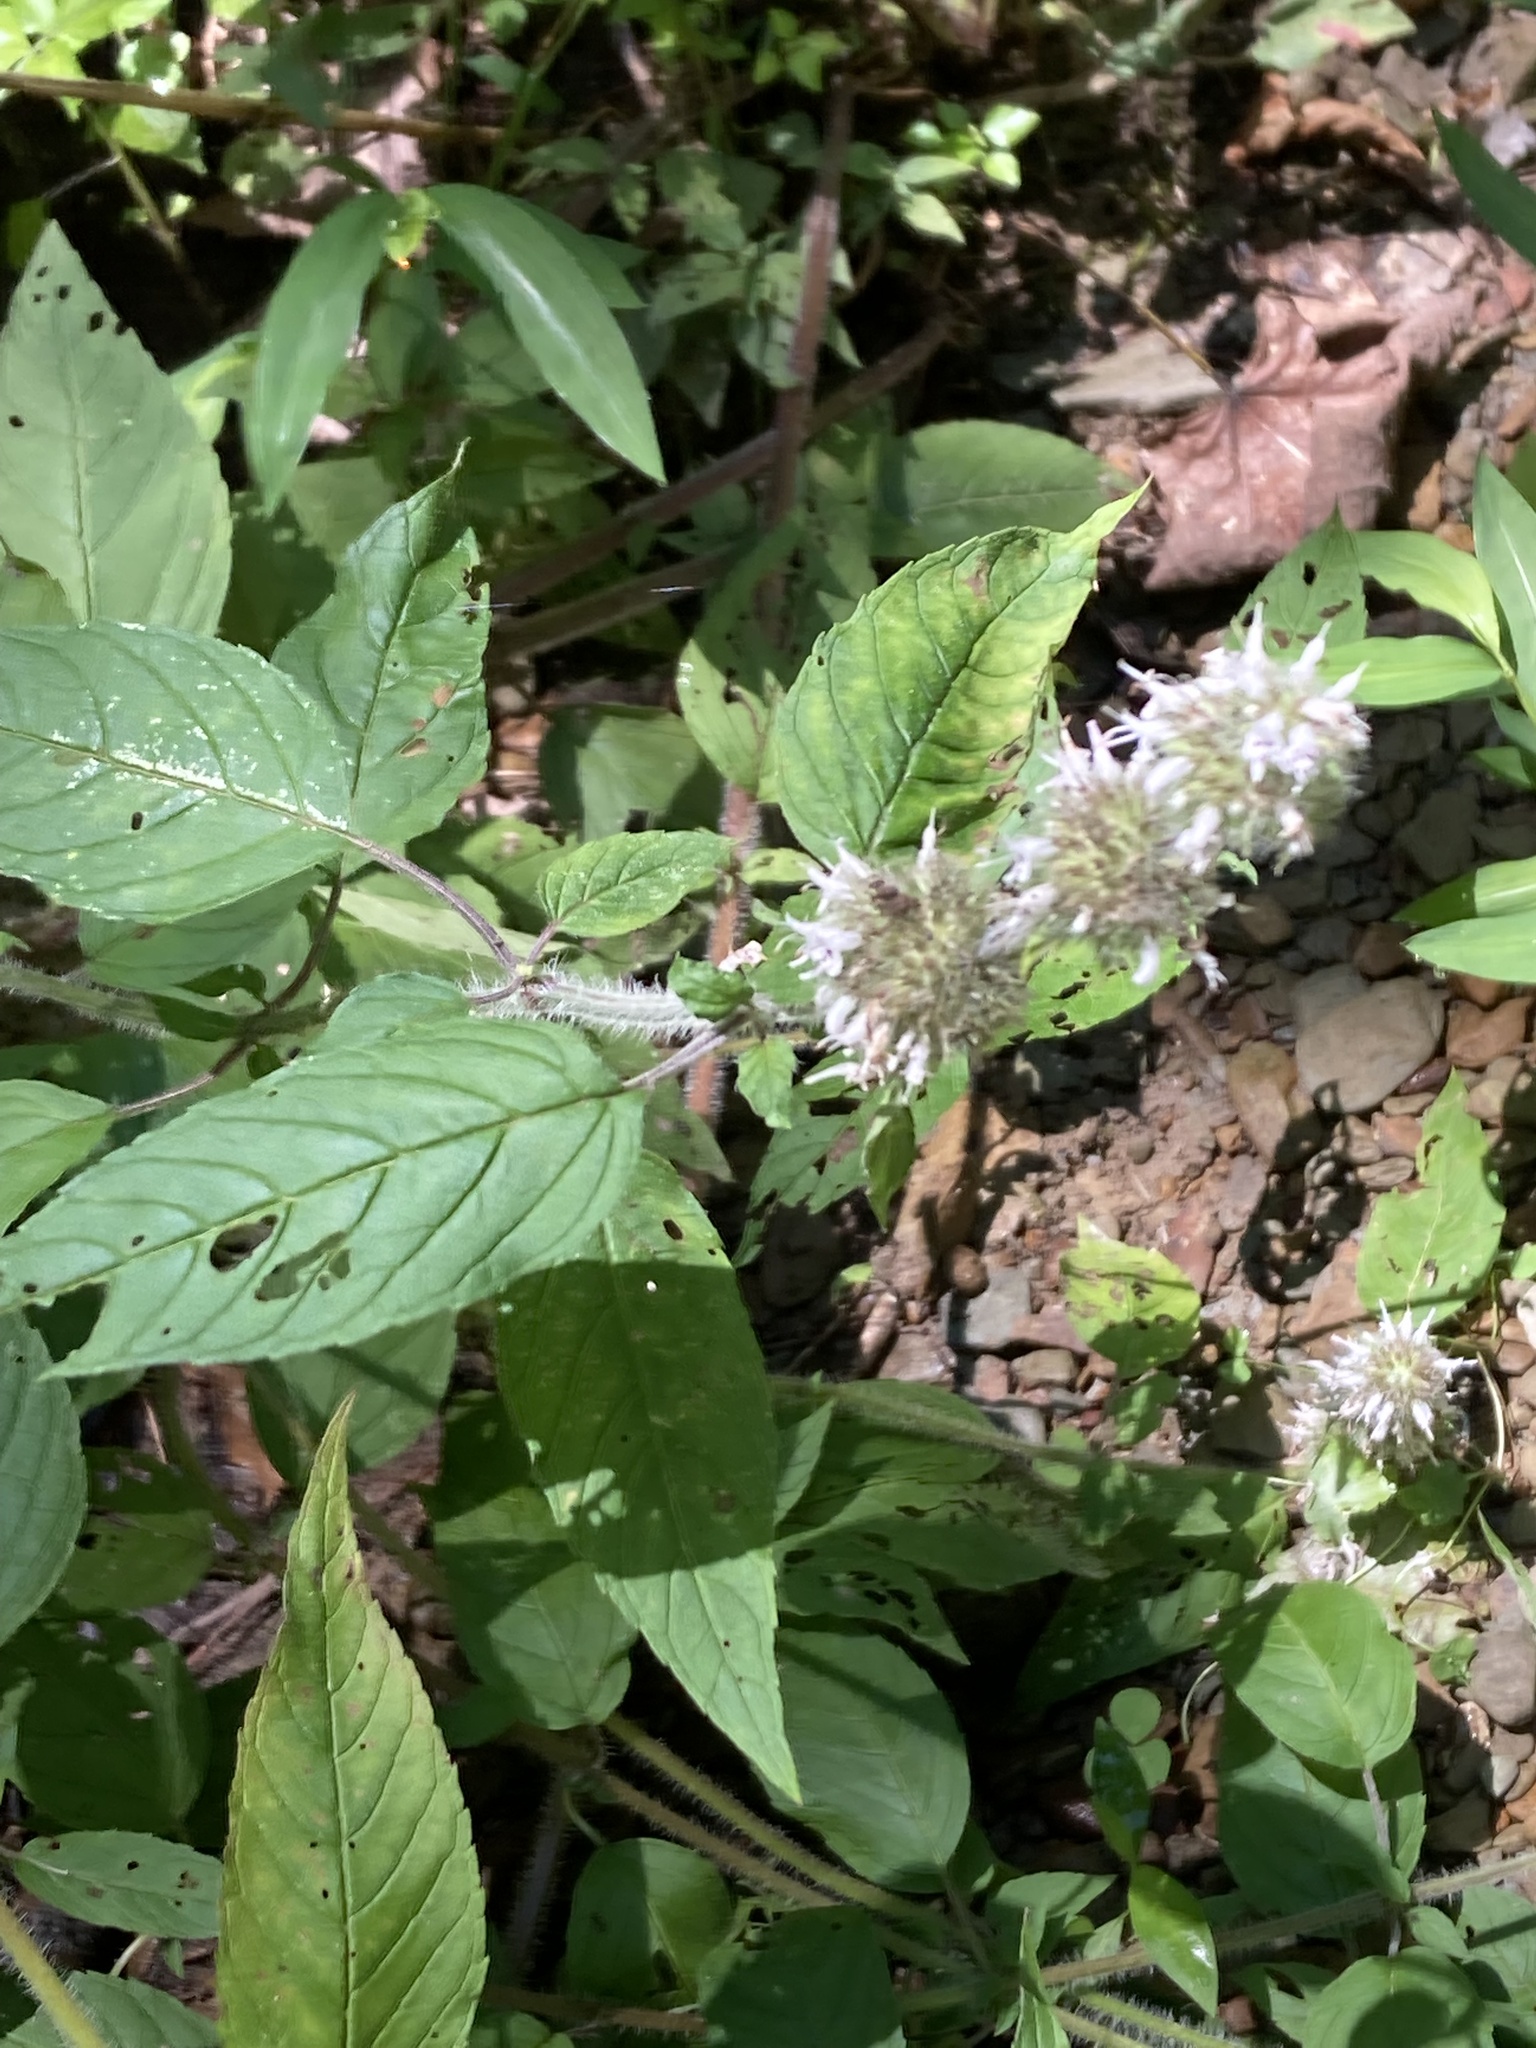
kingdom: Plantae
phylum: Tracheophyta
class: Magnoliopsida
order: Lamiales
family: Lamiaceae
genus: Blephilia
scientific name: Blephilia hirsuta
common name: Hairy blephilia
